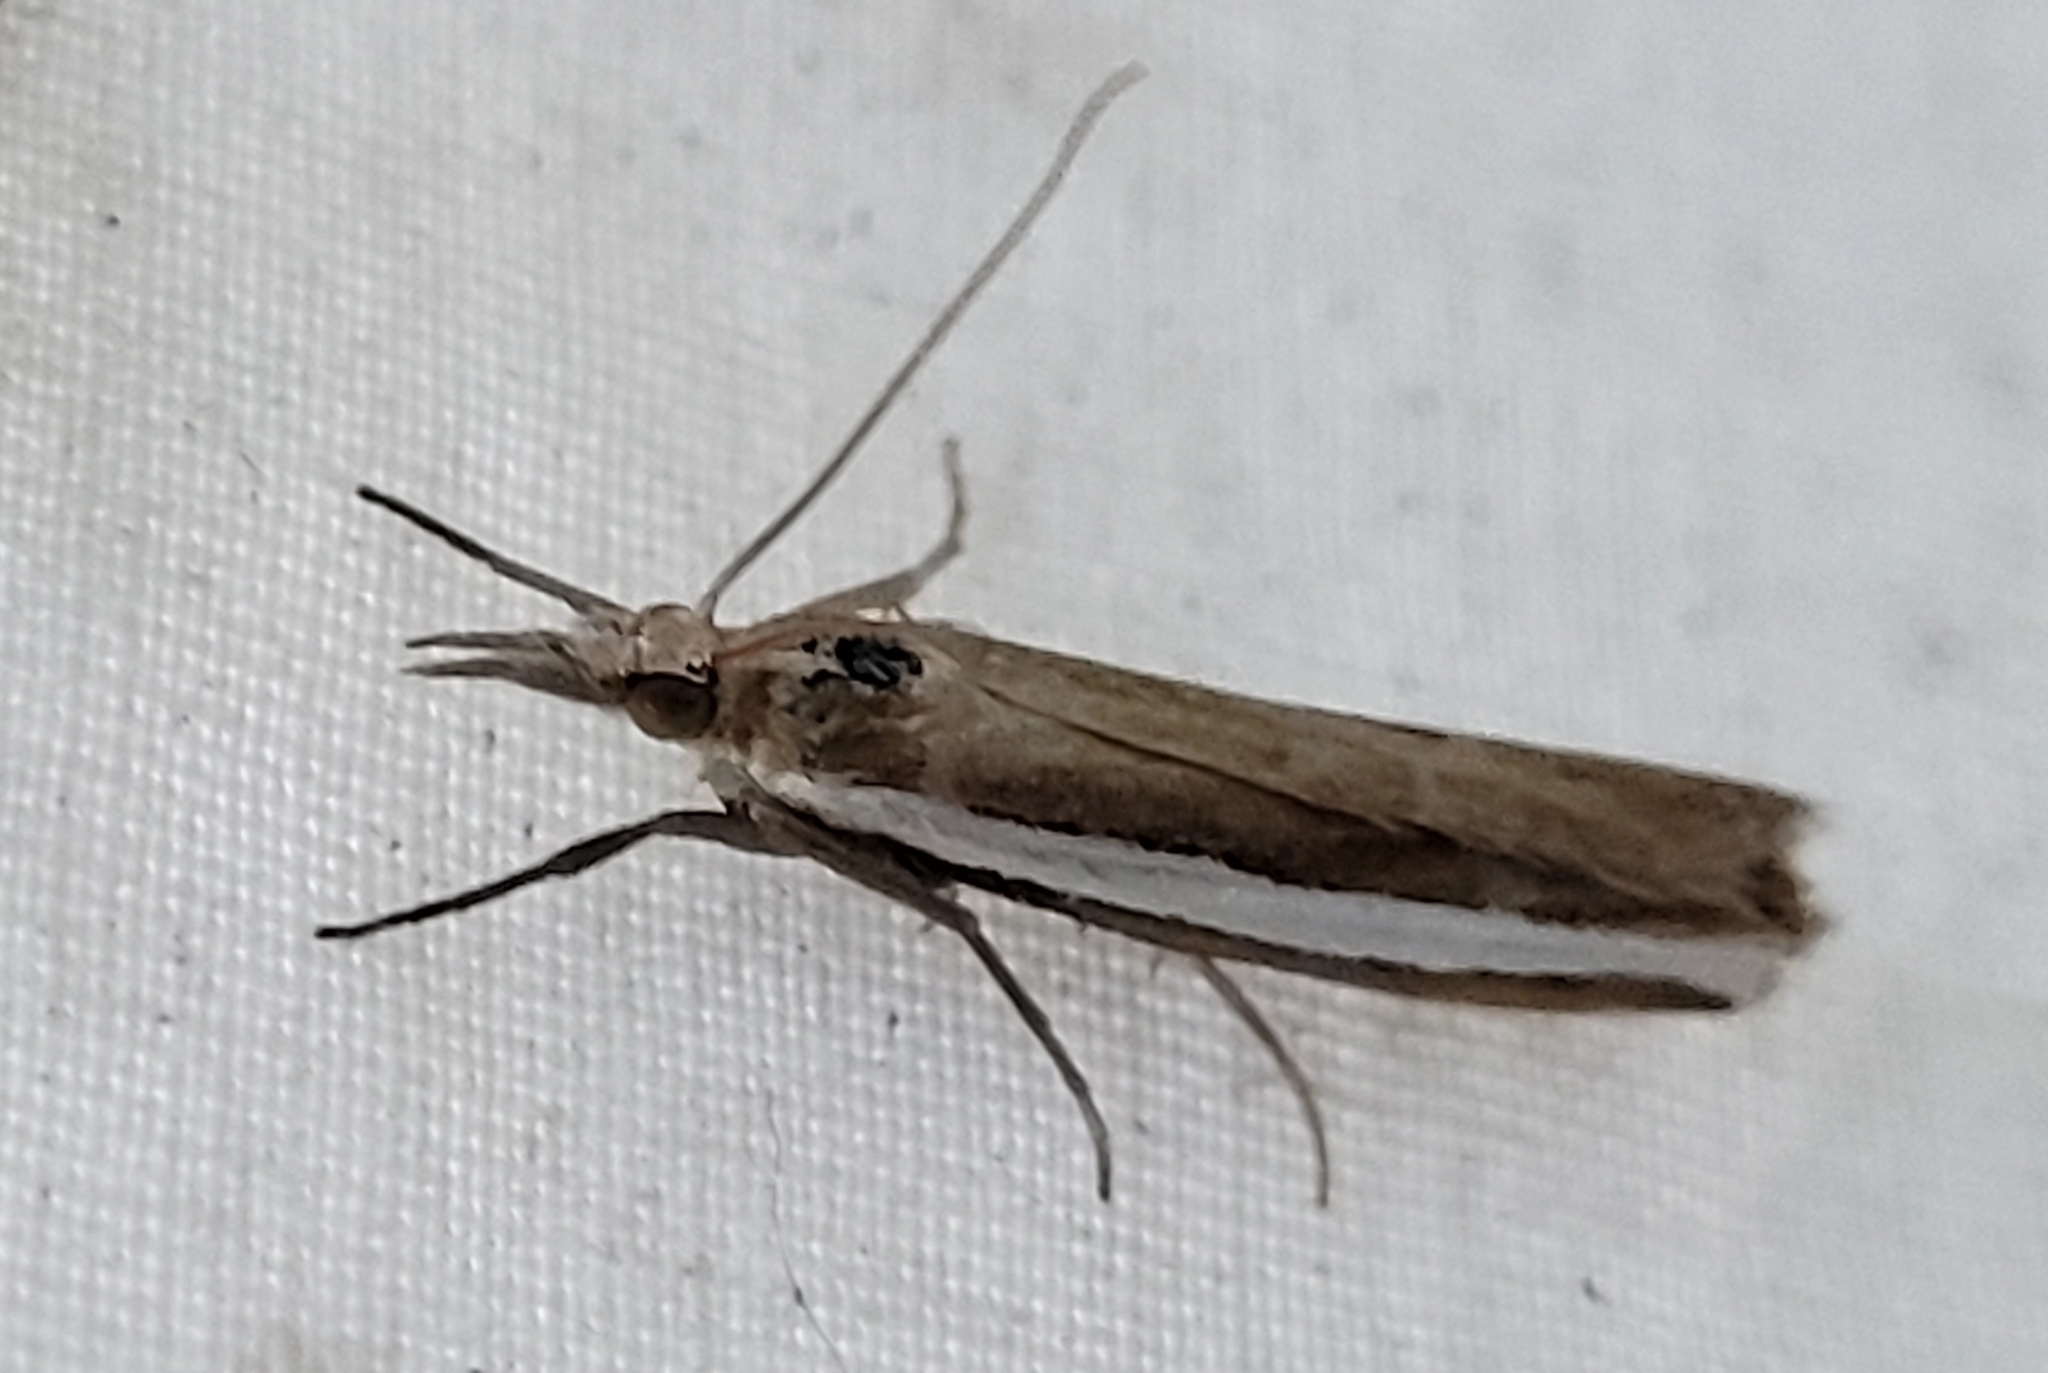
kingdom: Animalia
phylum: Arthropoda
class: Insecta
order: Lepidoptera
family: Crambidae
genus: Crambus
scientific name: Crambus unistriatellus
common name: Wide-stripe grass-veneer moth
